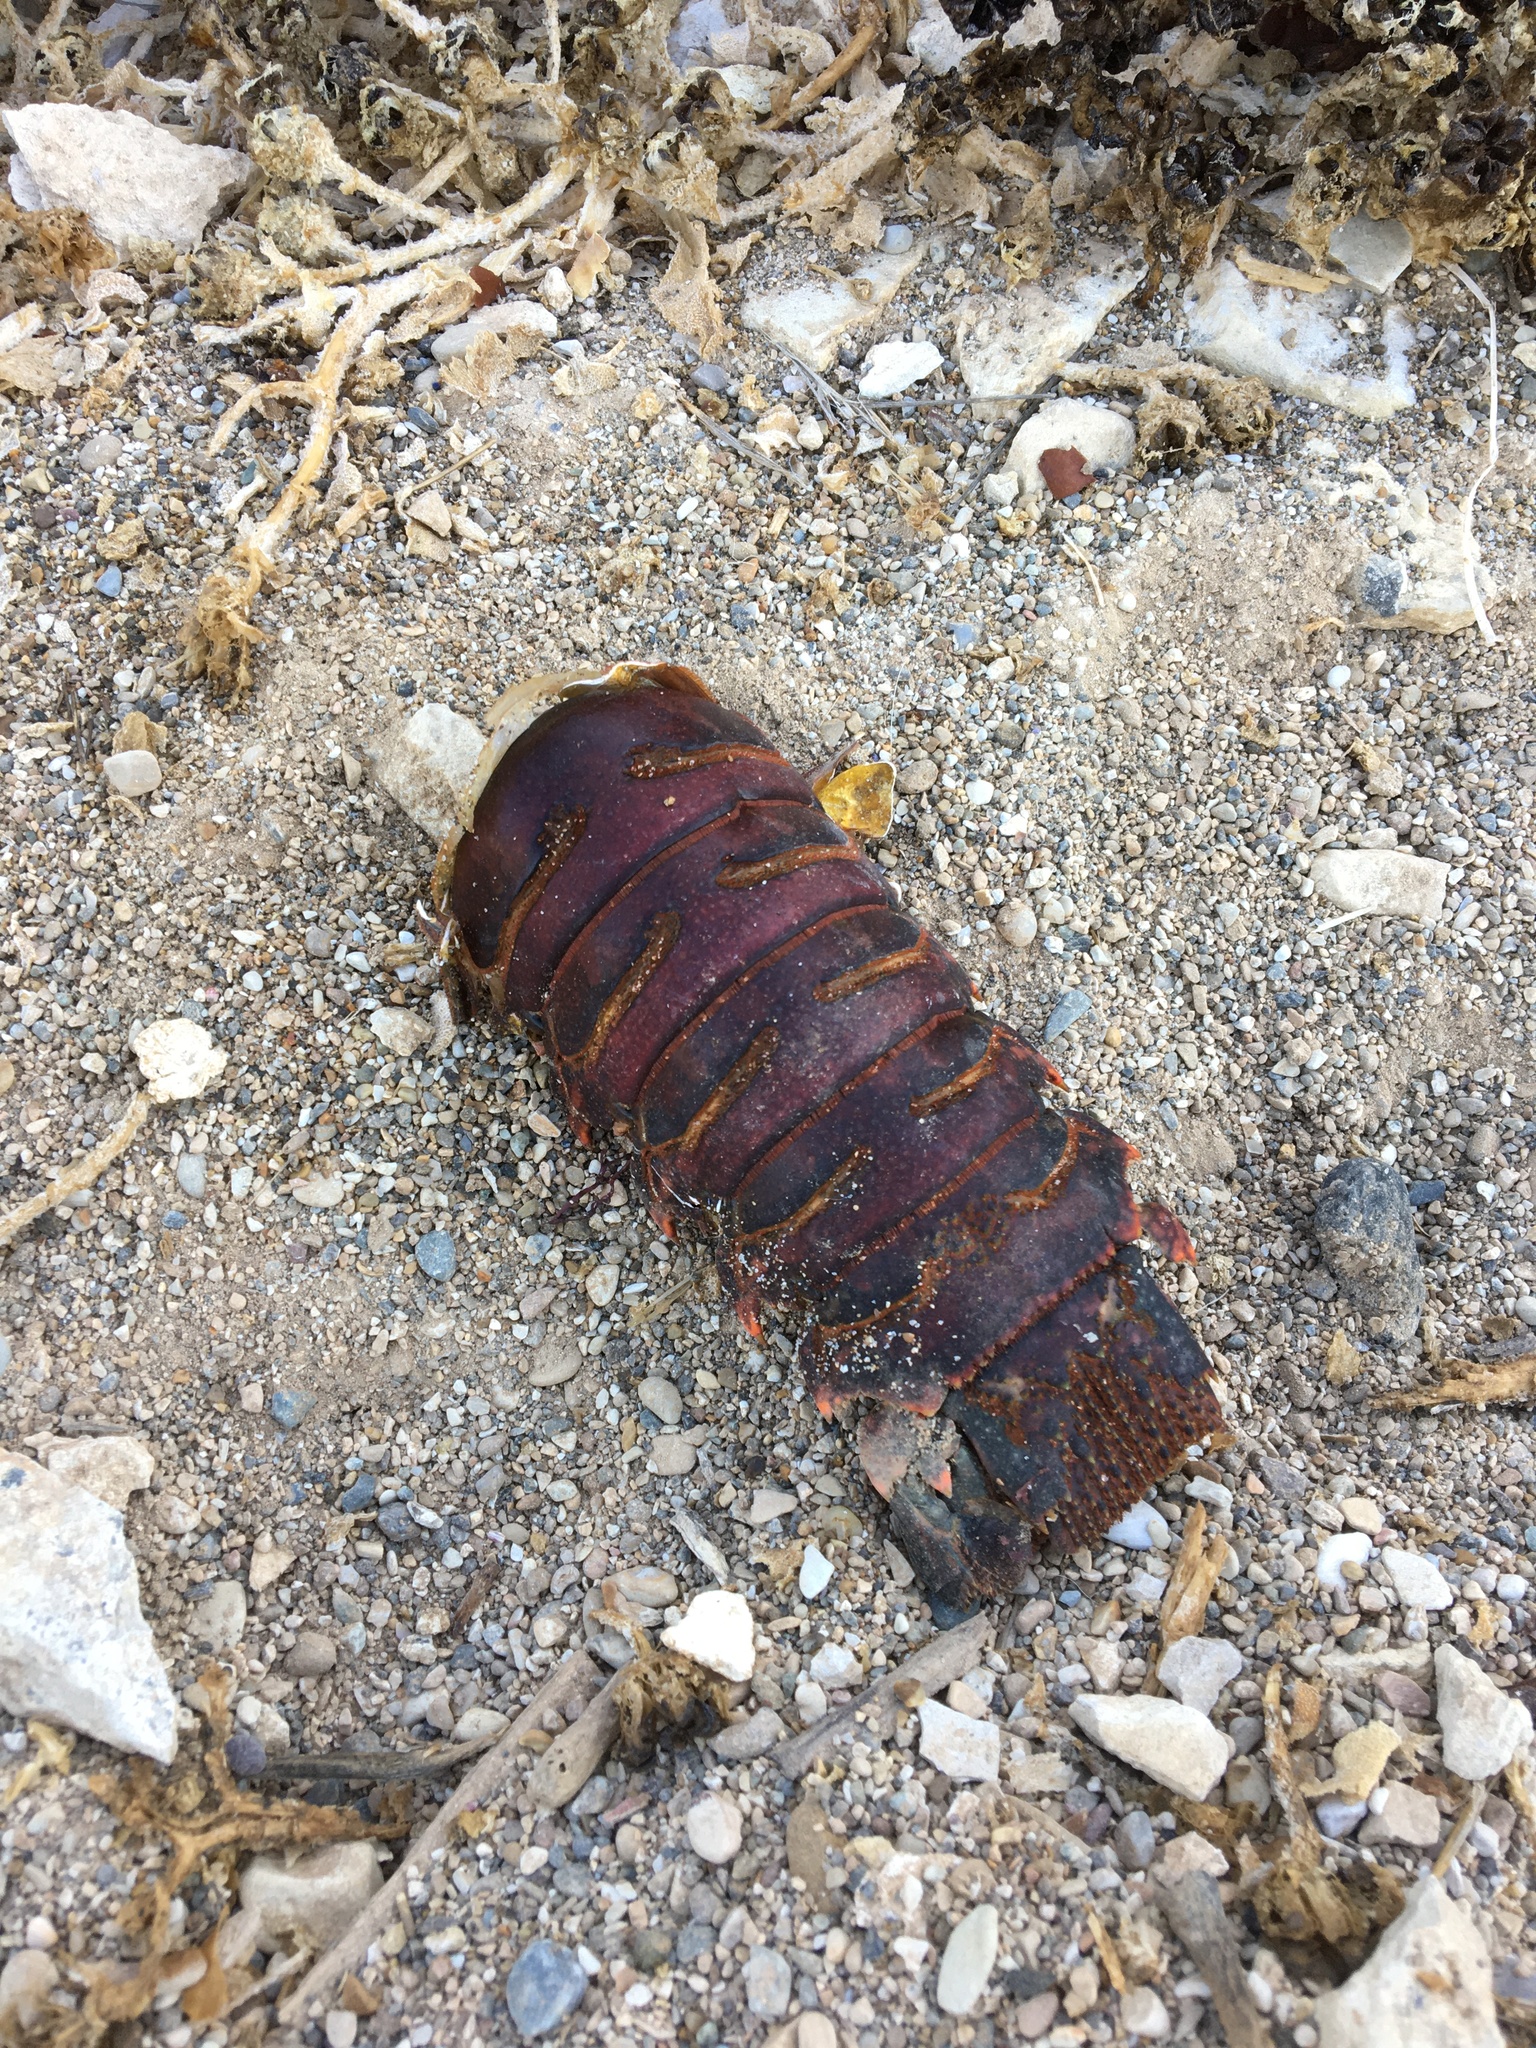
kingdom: Animalia
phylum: Arthropoda
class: Malacostraca
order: Decapoda
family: Palinuridae
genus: Panulirus
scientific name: Panulirus interruptus
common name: California spiny lobster
